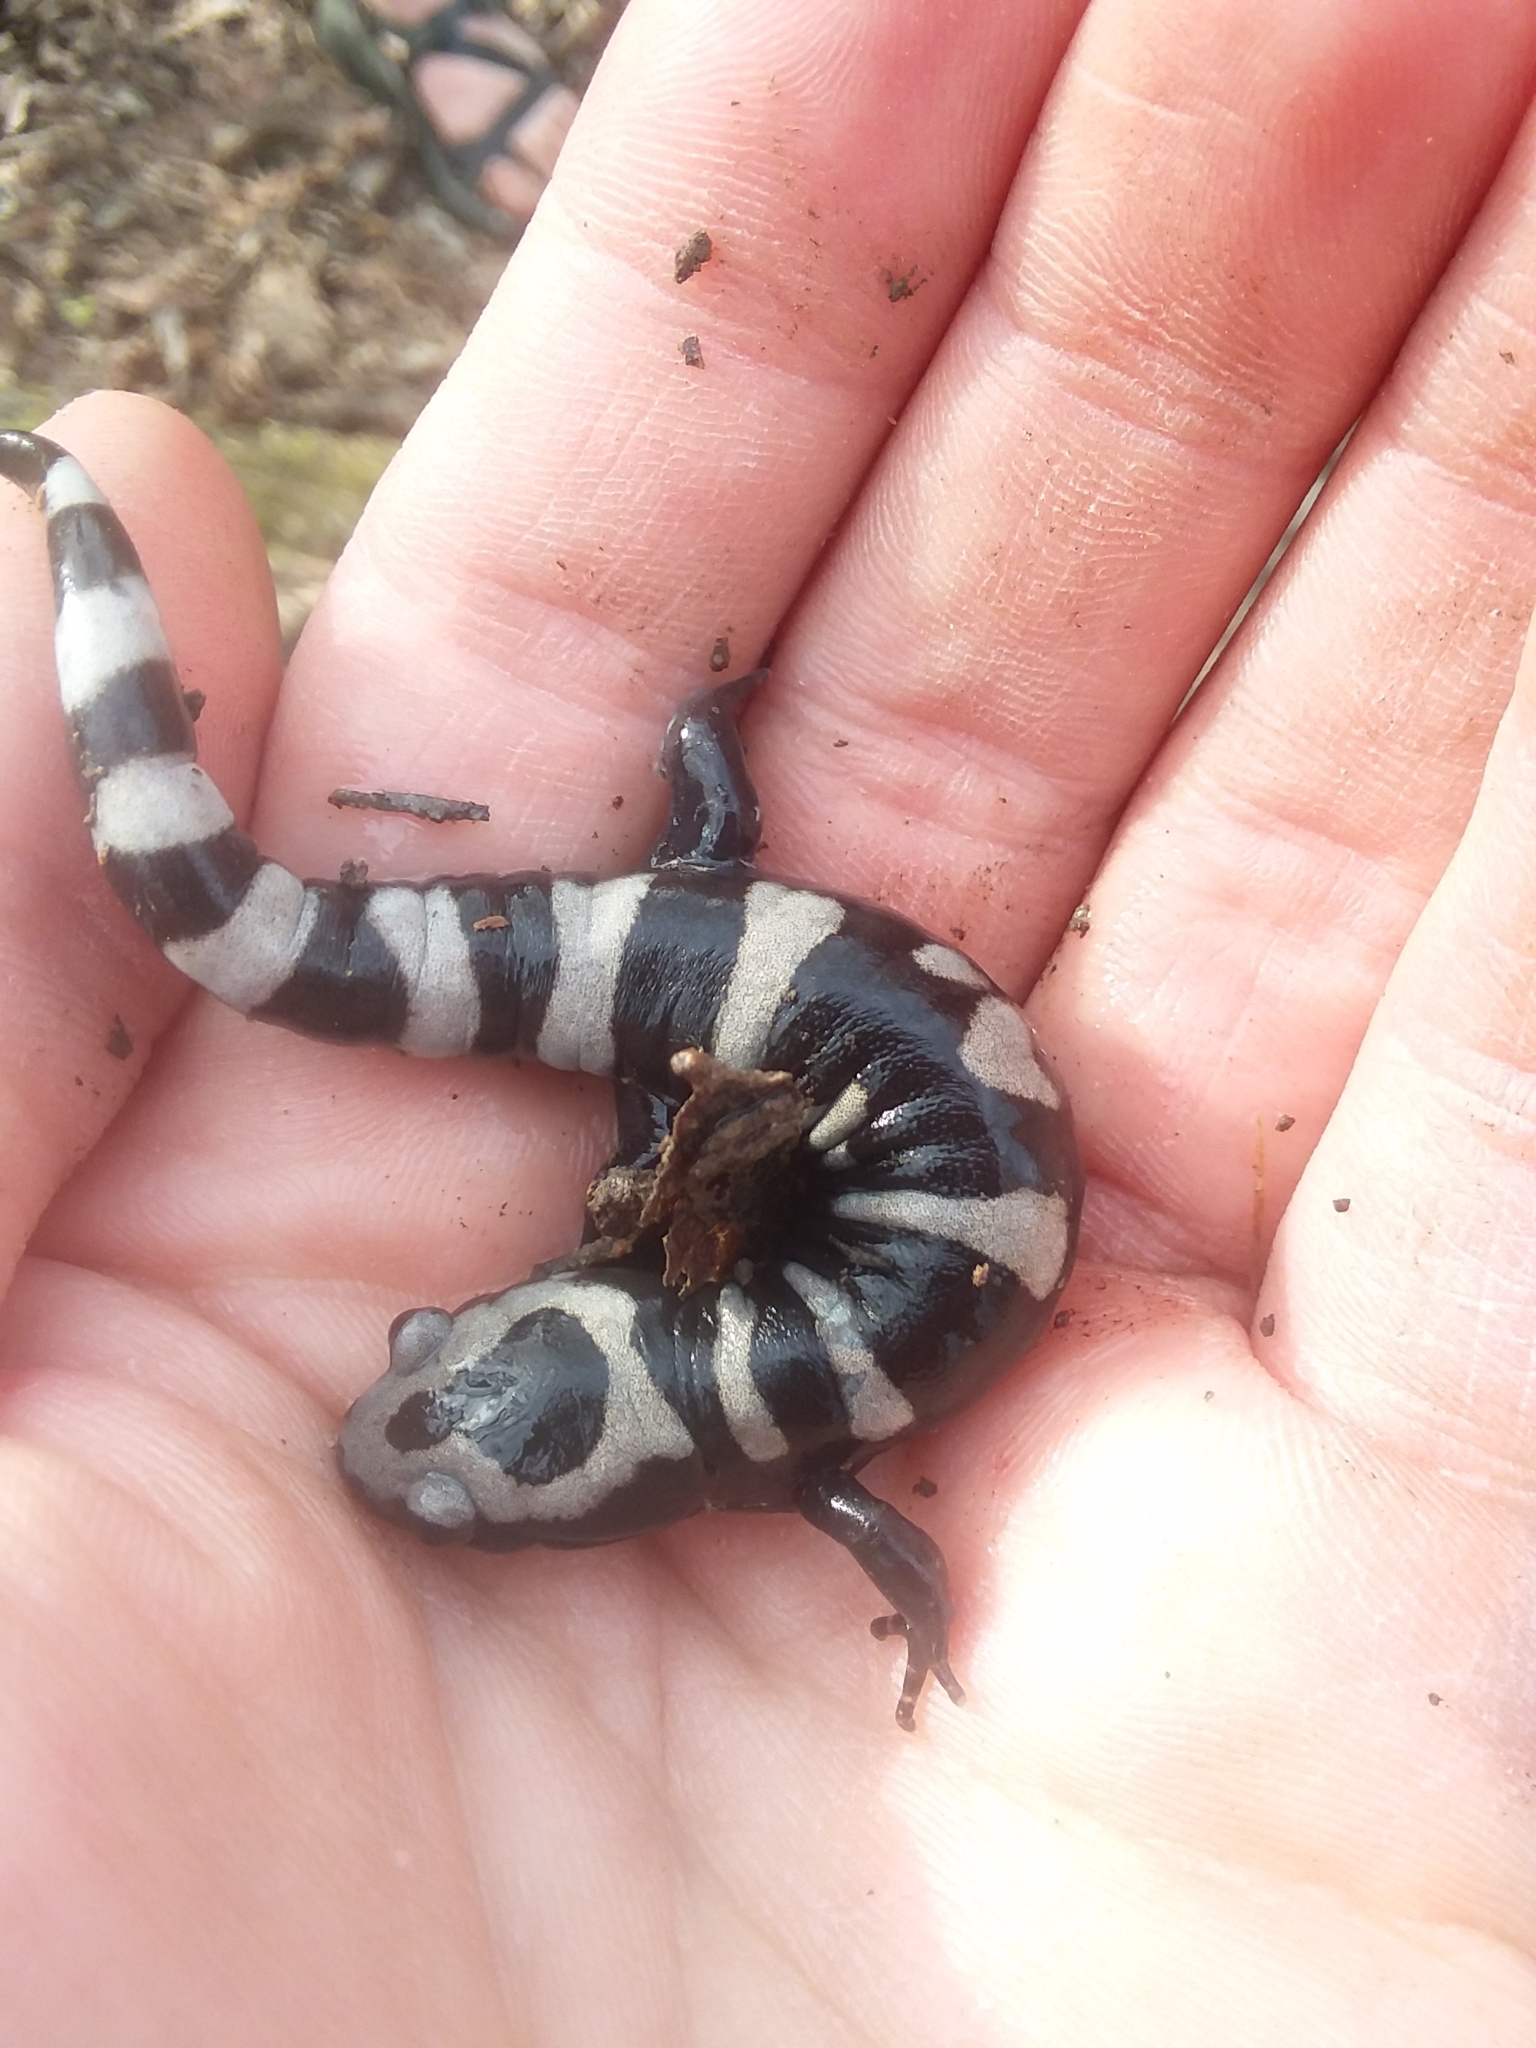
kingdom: Animalia
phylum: Chordata
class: Amphibia
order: Caudata
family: Ambystomatidae
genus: Ambystoma
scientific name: Ambystoma opacum
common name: Marbled salamander
